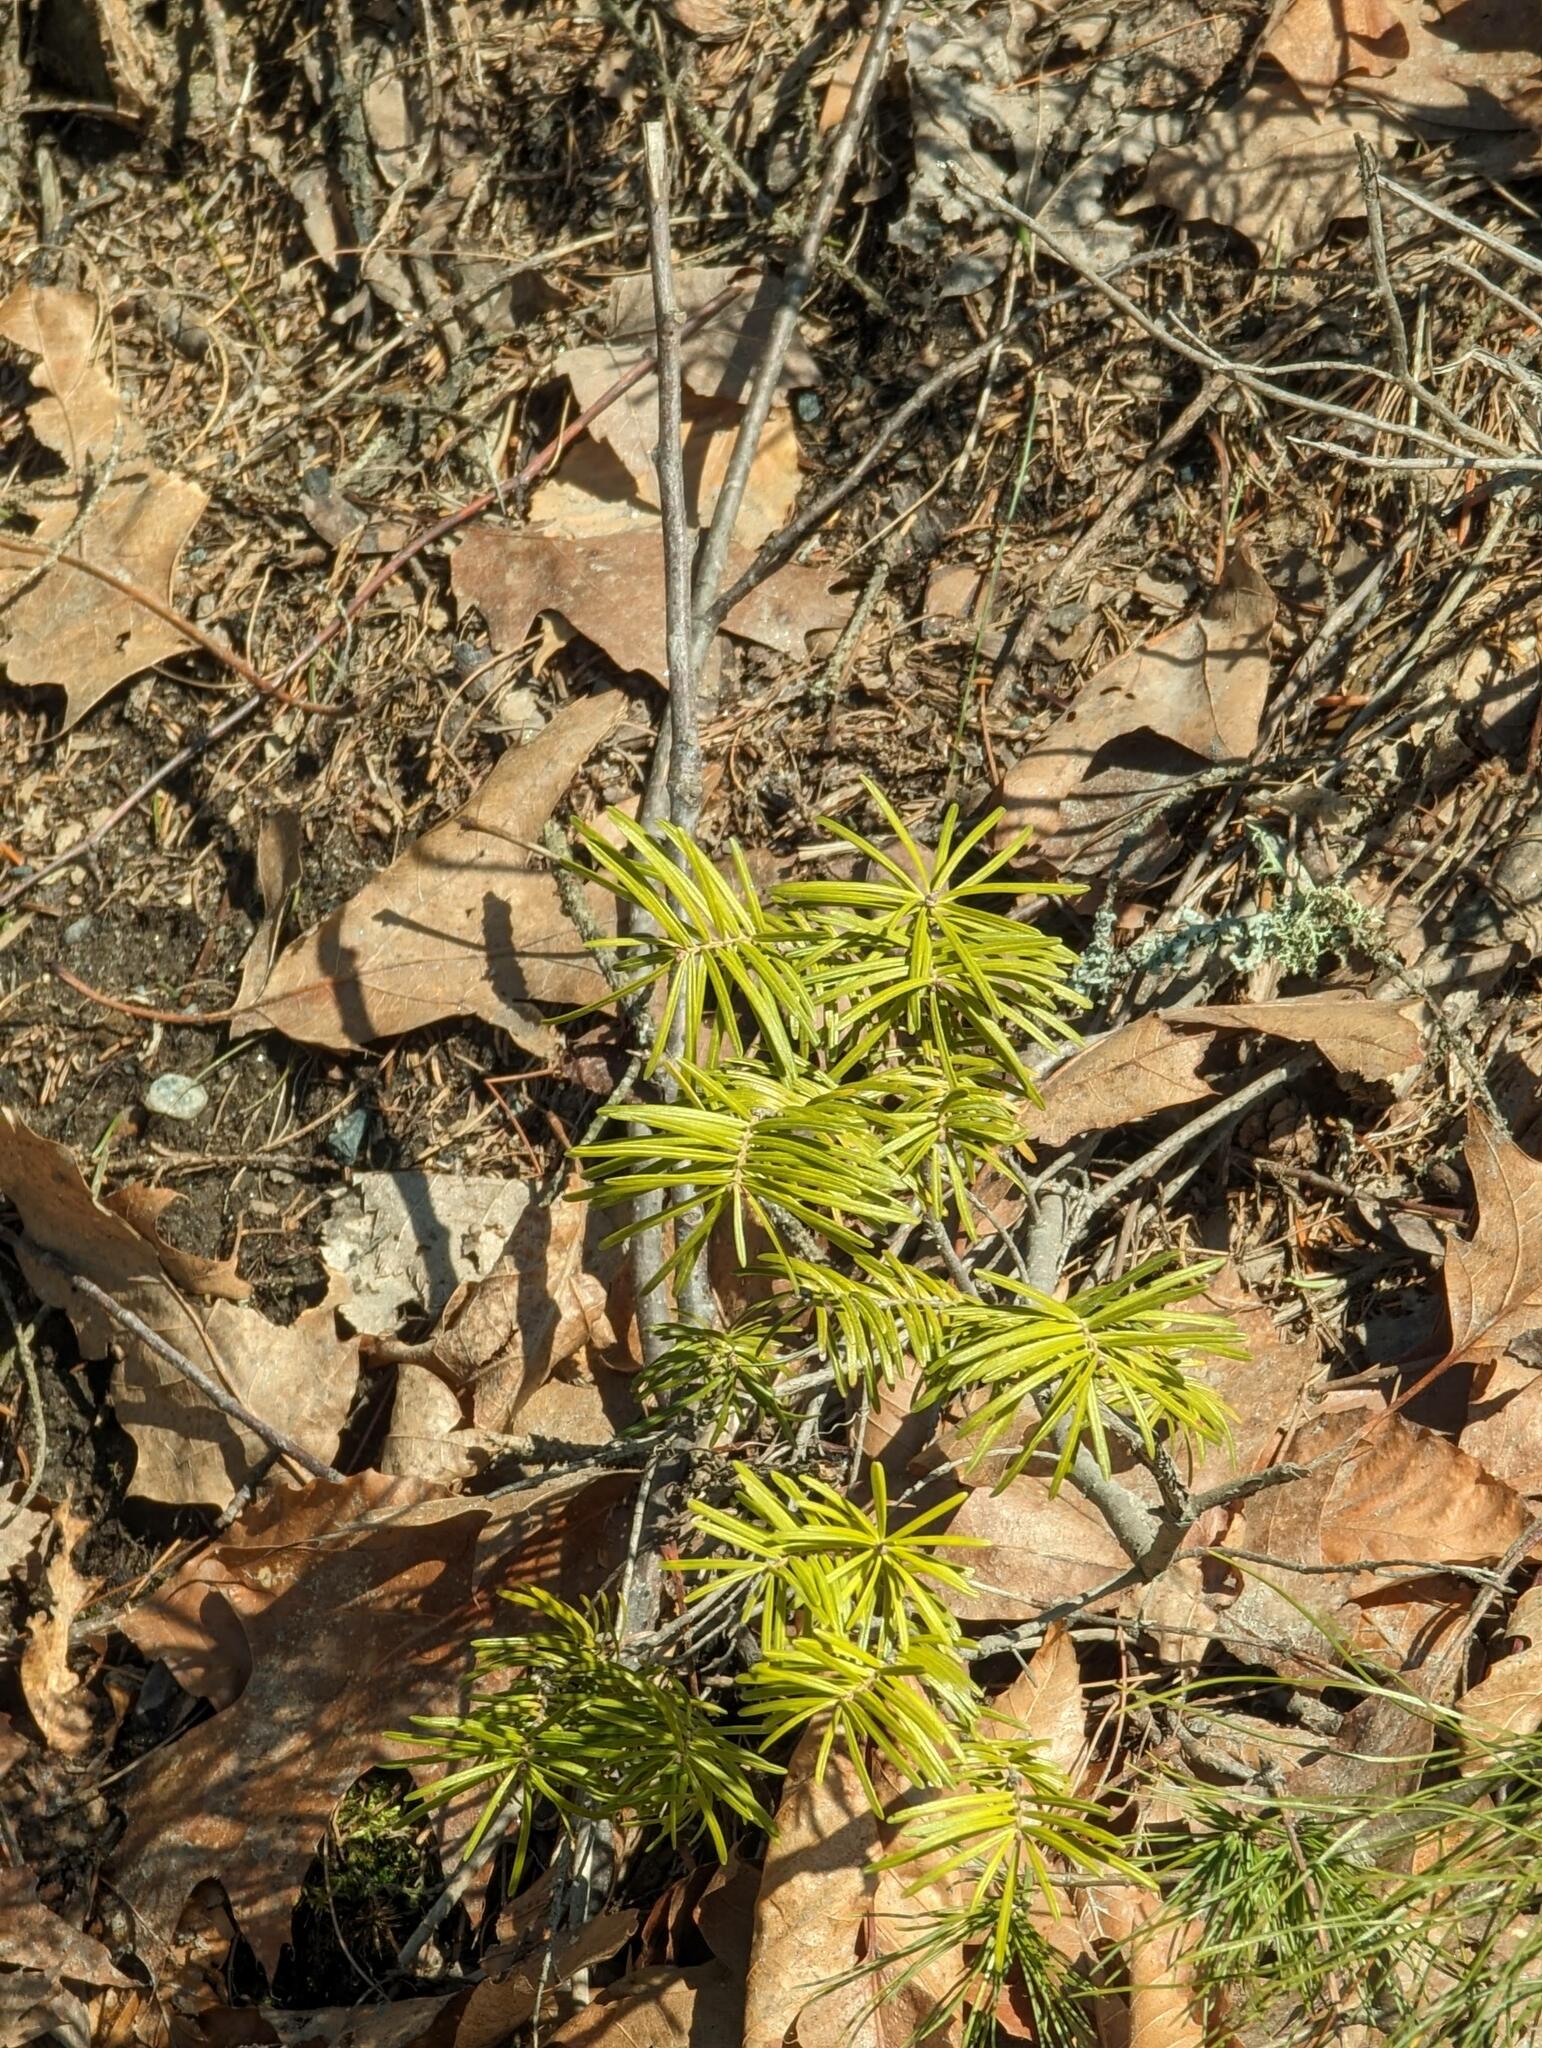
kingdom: Plantae
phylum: Tracheophyta
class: Pinopsida
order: Pinales
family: Pinaceae
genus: Abies
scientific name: Abies balsamea
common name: Balsam fir
